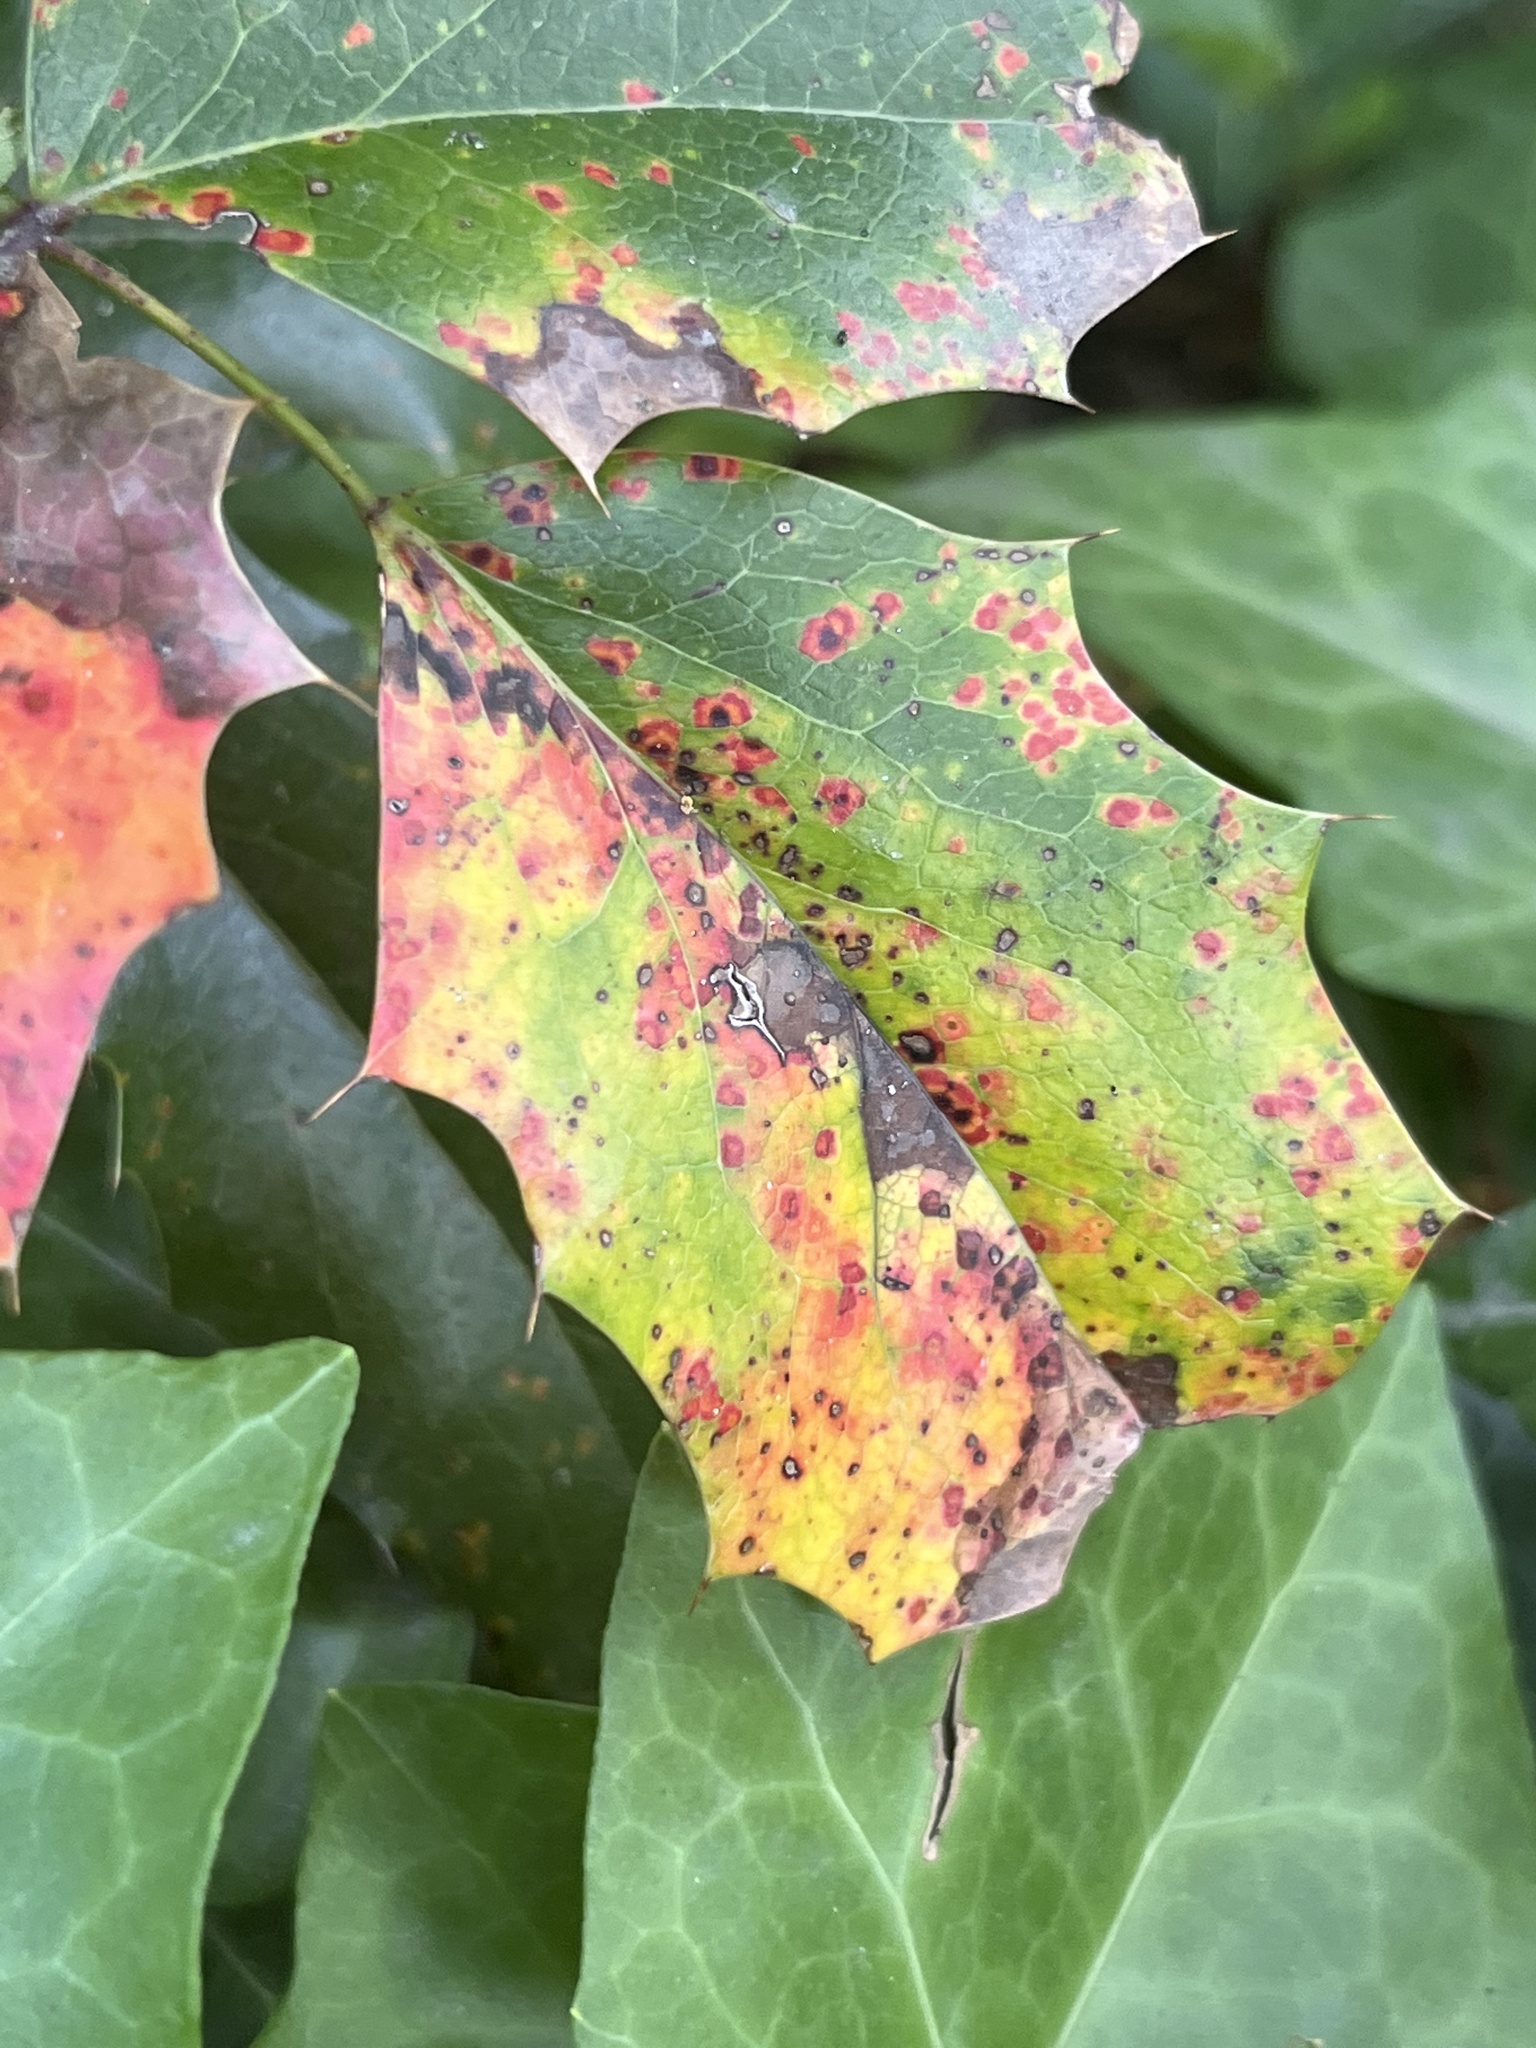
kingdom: Fungi
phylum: Basidiomycota
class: Pucciniomycetes
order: Pucciniales
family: Pucciniaceae
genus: Cumminsiella
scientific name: Cumminsiella mirabilissima
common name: Mahonia rust
